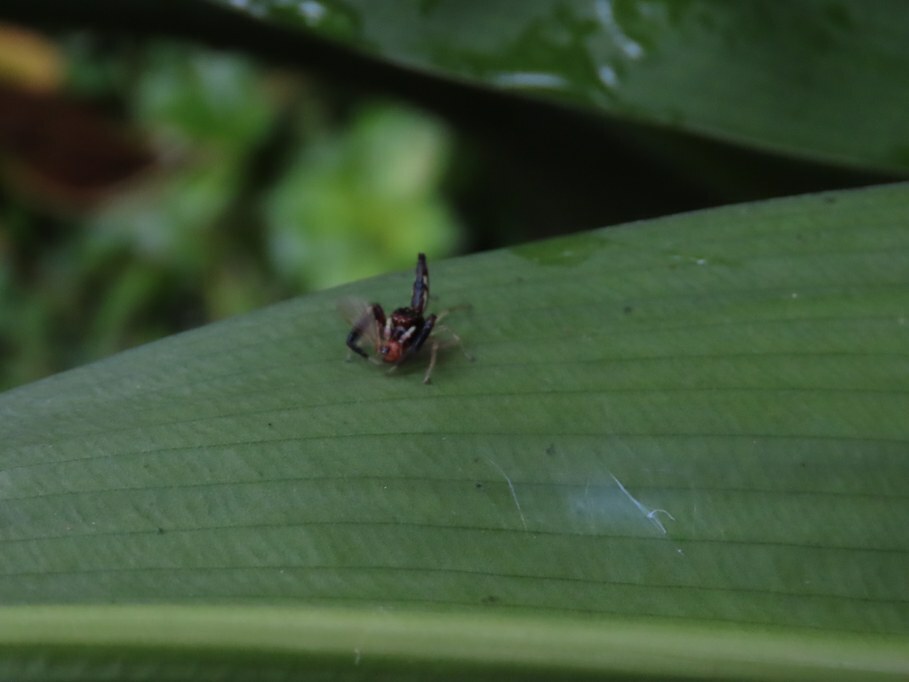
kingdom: Animalia
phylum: Arthropoda
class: Arachnida
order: Araneae
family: Salticidae
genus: Indopadilla
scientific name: Indopadilla kodagura
